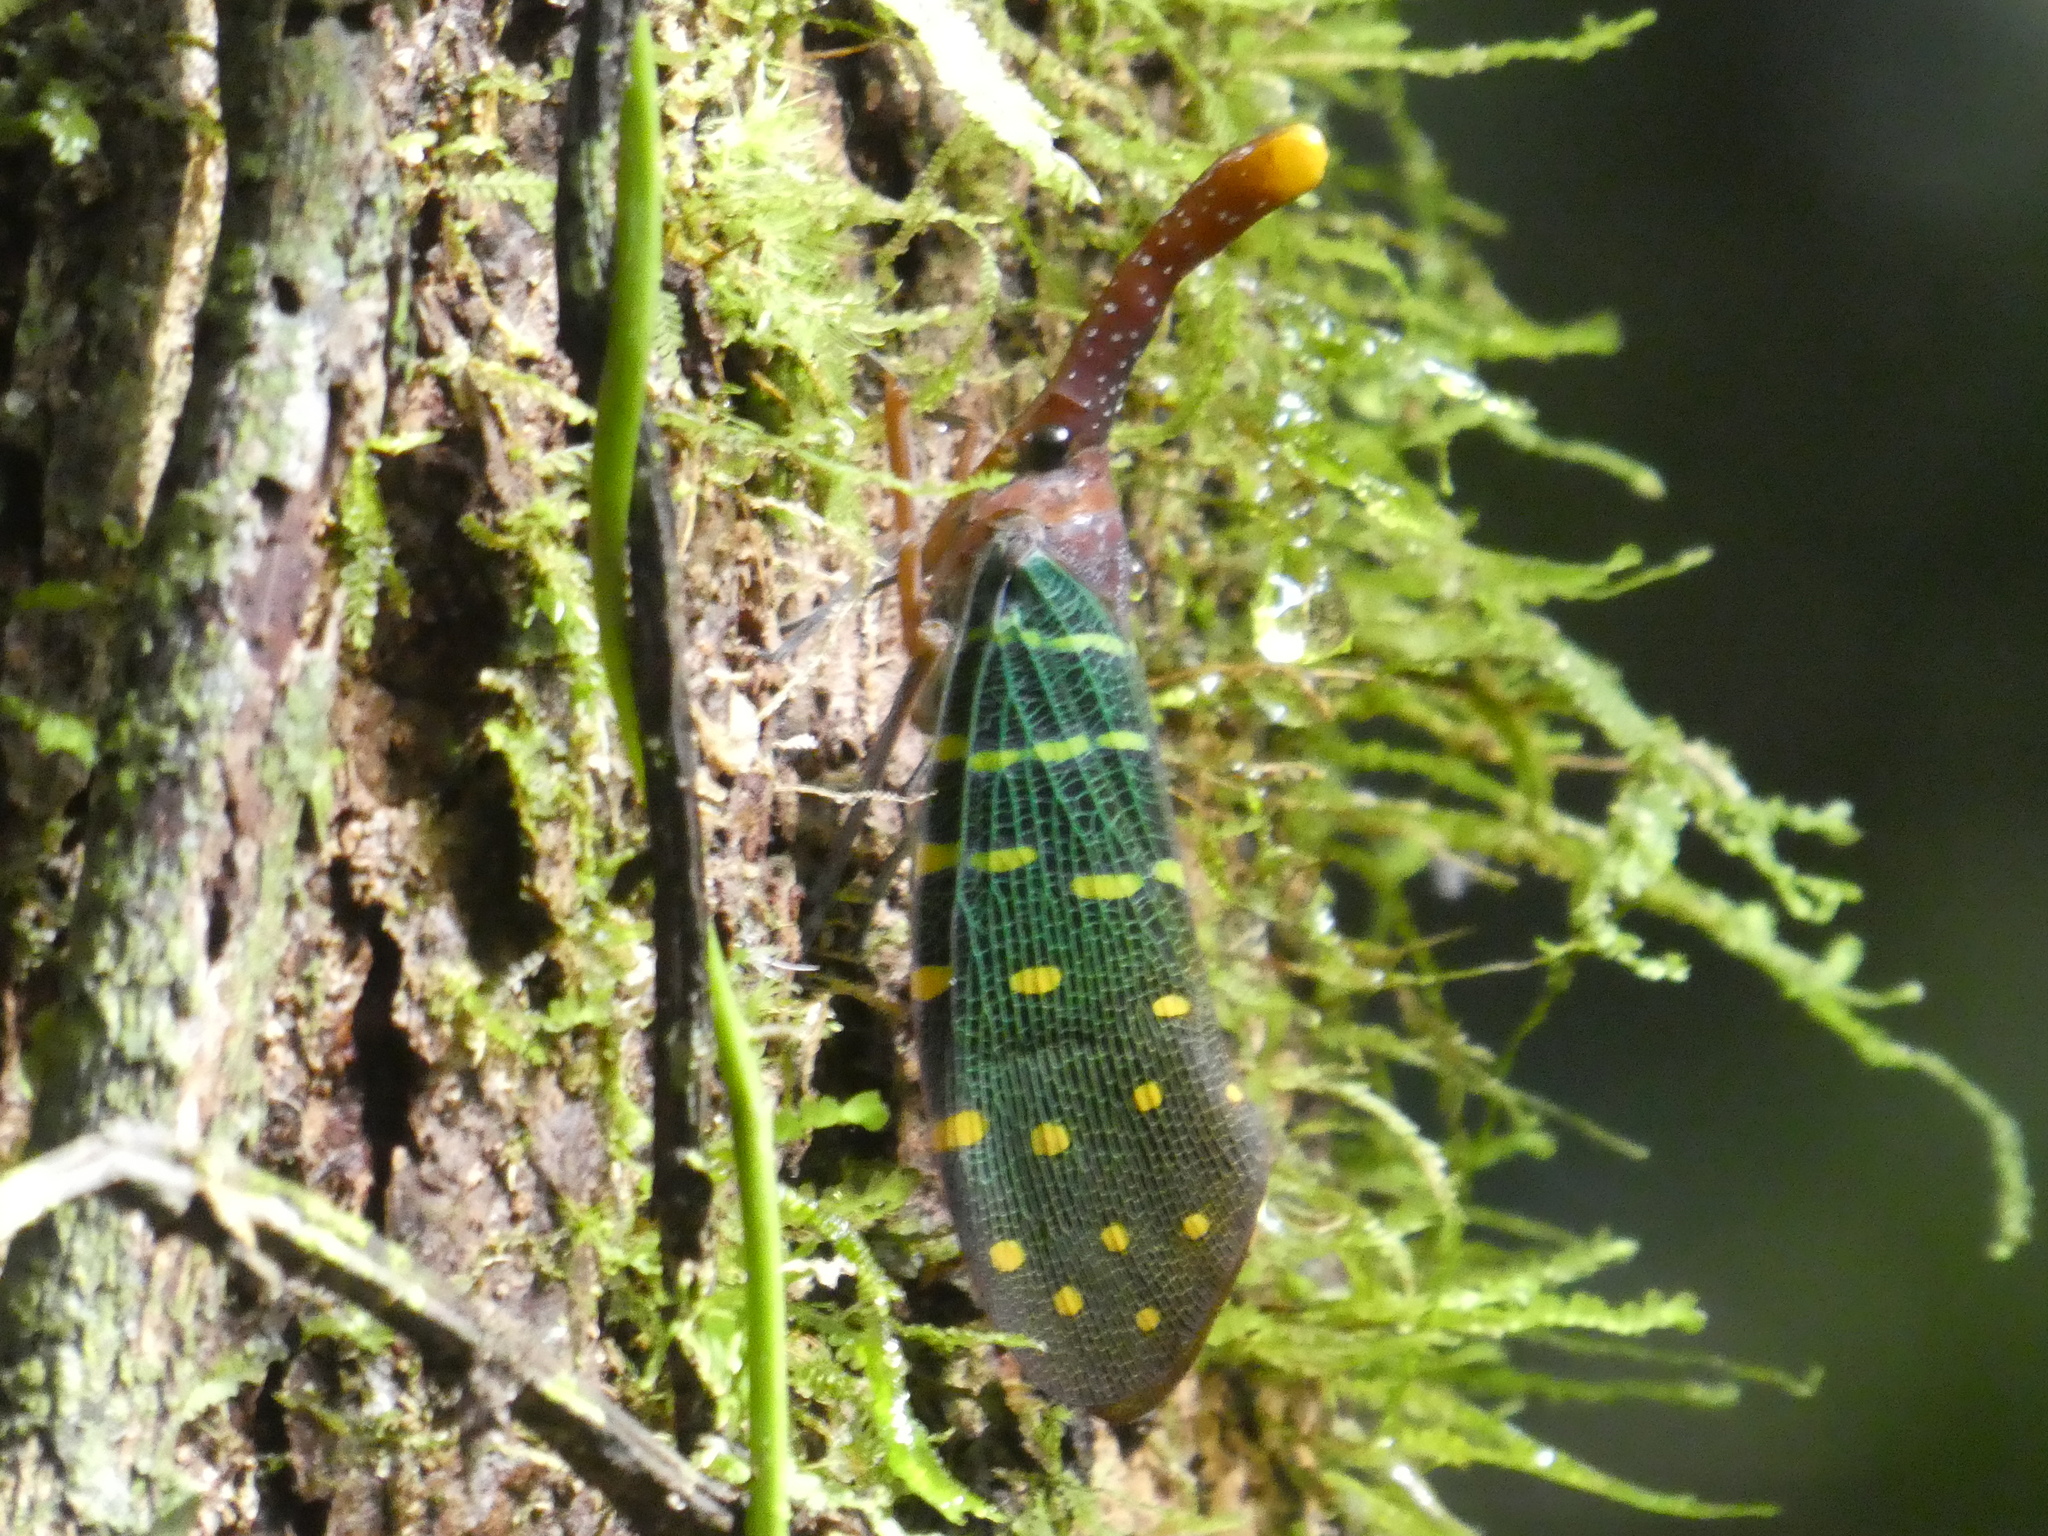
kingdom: Animalia
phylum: Arthropoda
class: Insecta
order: Hemiptera
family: Fulgoridae
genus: Pyrops
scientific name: Pyrops intricatus
